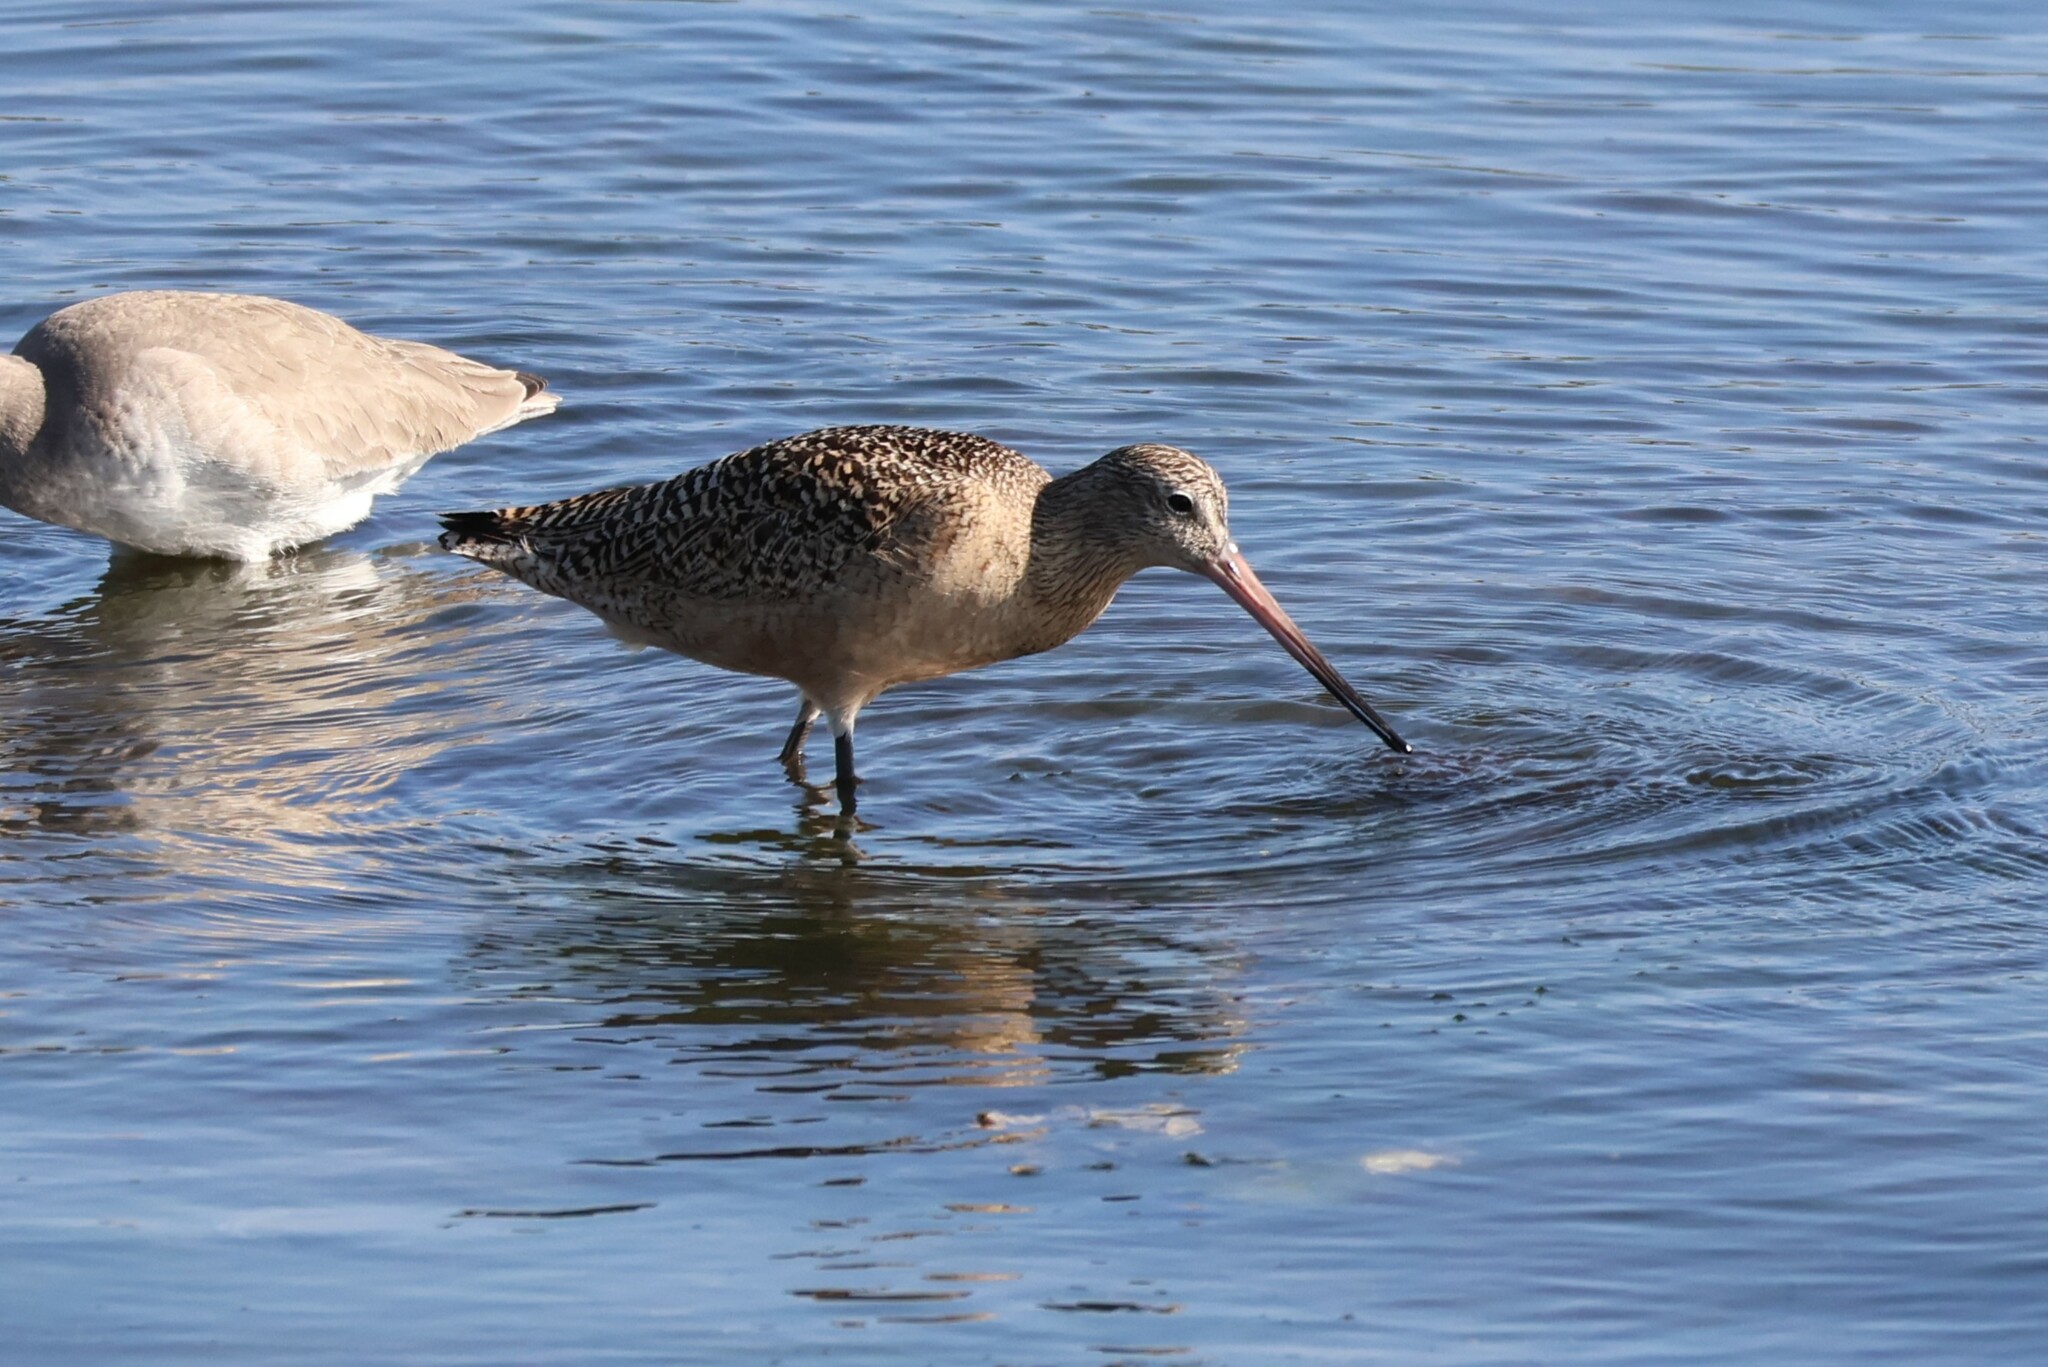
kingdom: Animalia
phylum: Chordata
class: Aves
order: Charadriiformes
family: Scolopacidae
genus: Limosa
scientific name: Limosa fedoa
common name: Marbled godwit
